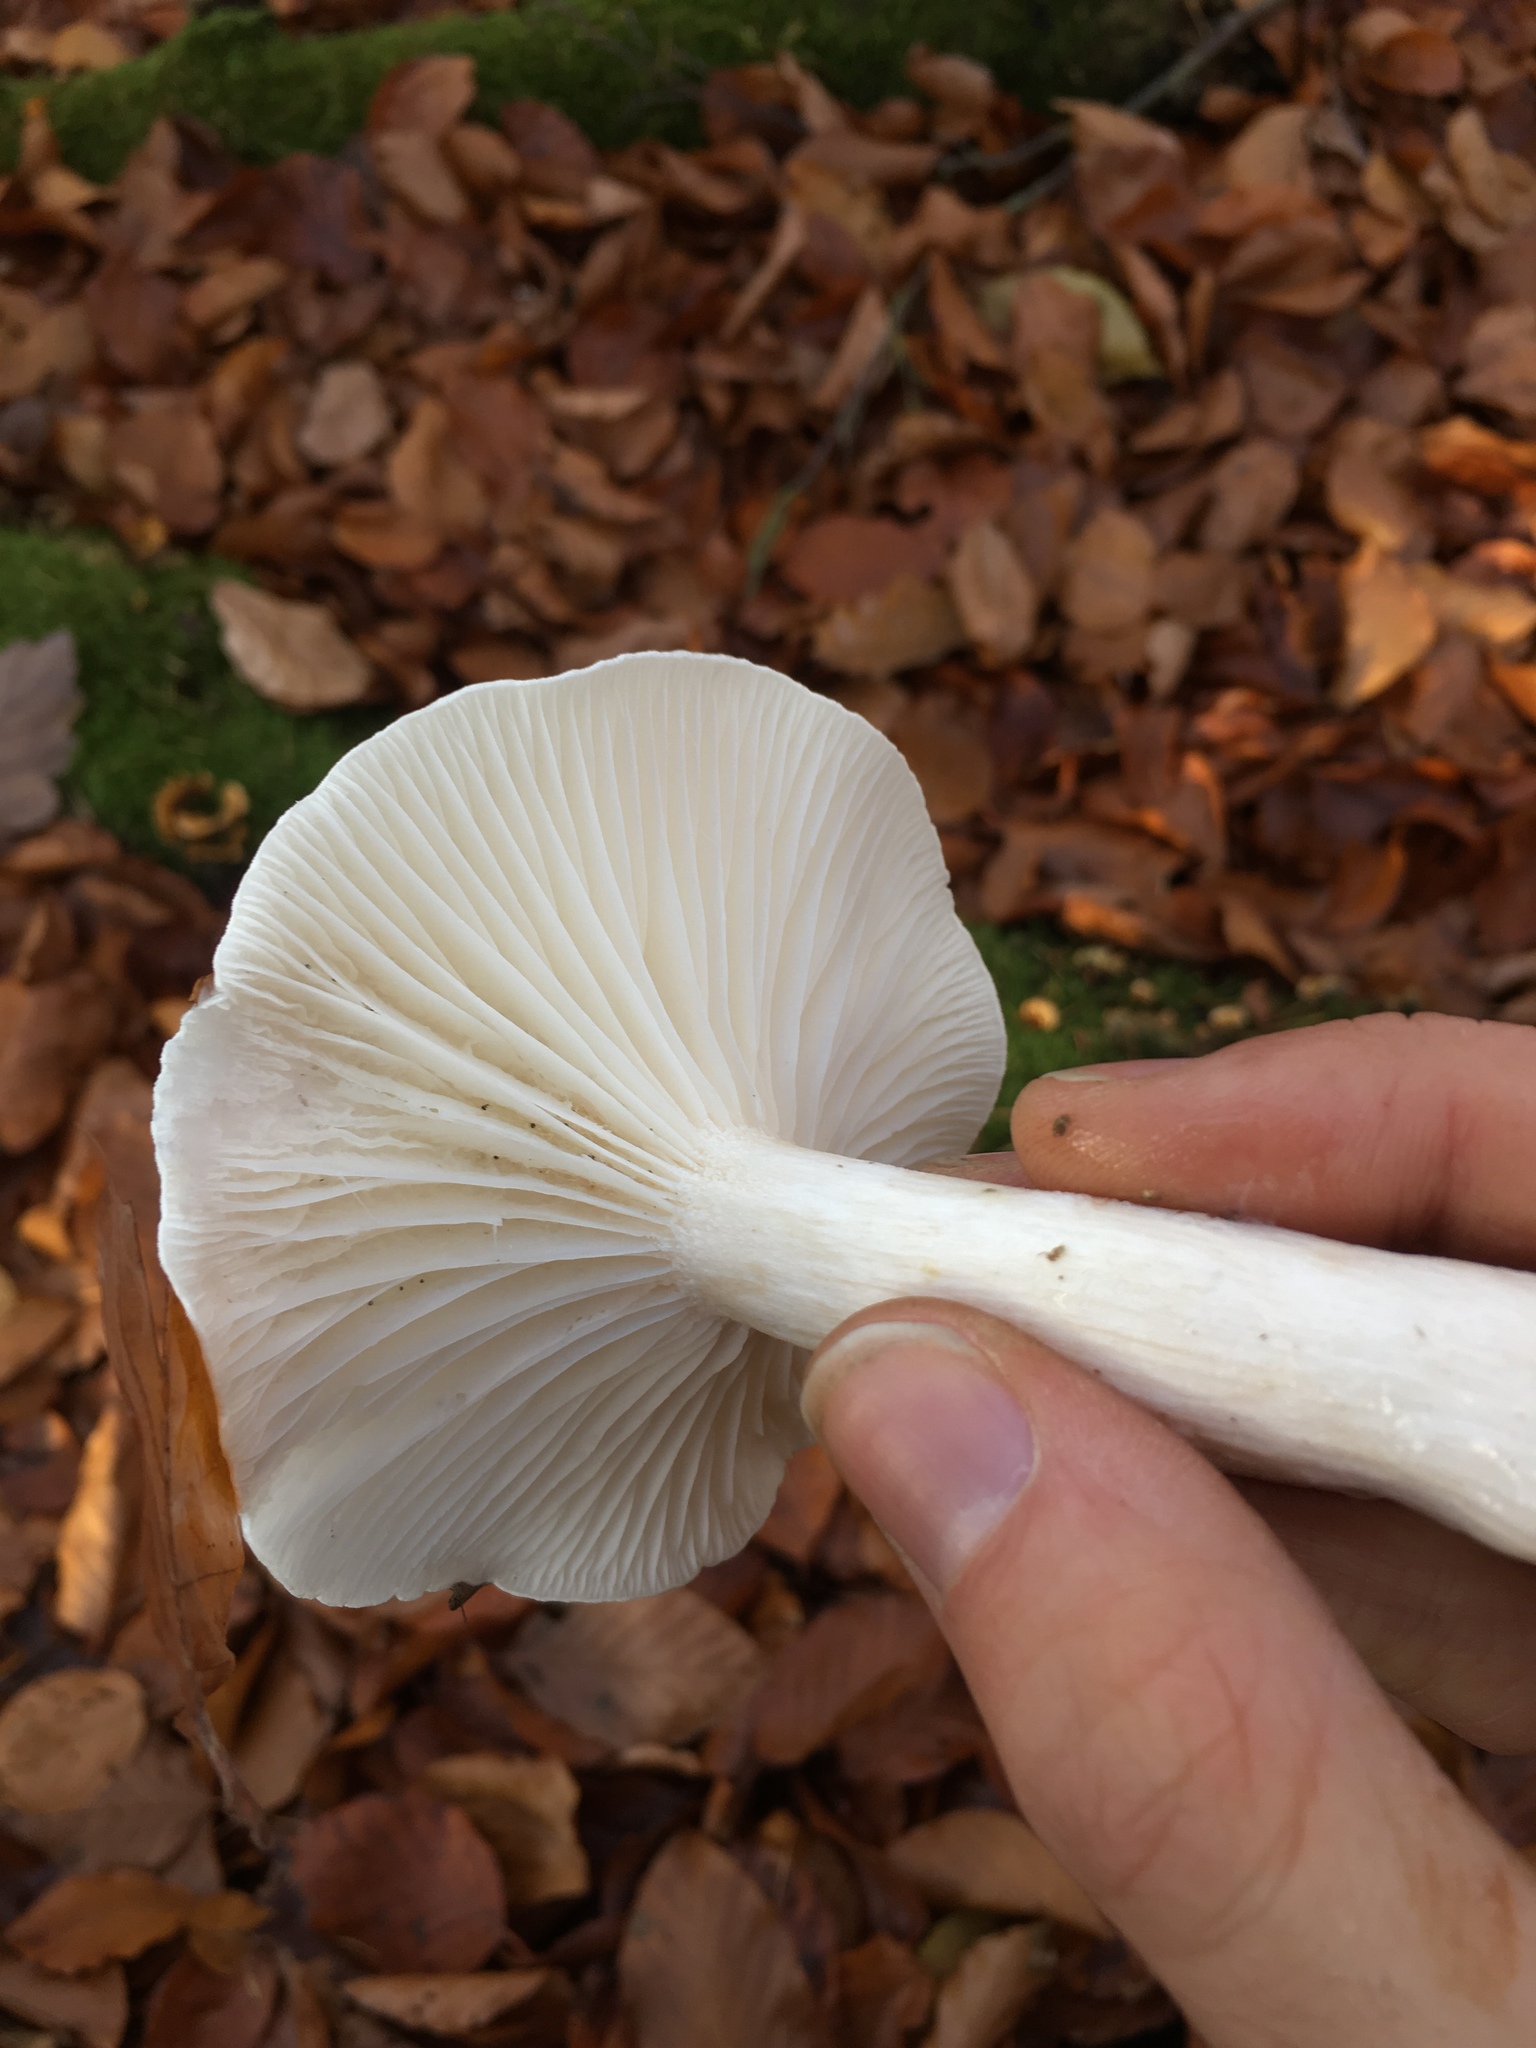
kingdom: Fungi
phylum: Basidiomycota
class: Agaricomycetes
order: Agaricales
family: Hygrophoraceae
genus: Hygrophorus
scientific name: Hygrophorus eburneus
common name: Ivory wax-cap
